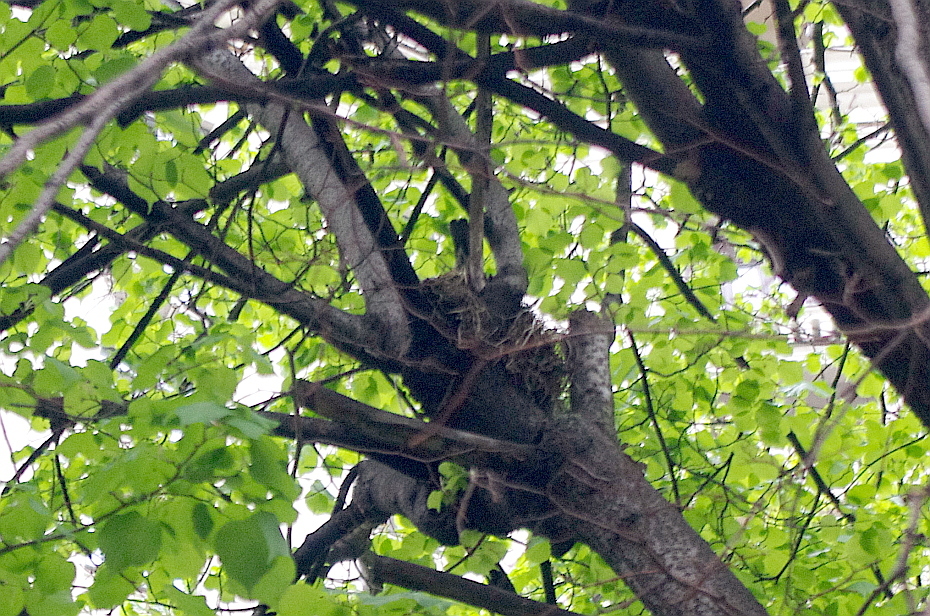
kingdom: Animalia
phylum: Chordata
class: Aves
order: Passeriformes
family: Turdidae
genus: Turdus
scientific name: Turdus pilaris
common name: Fieldfare
